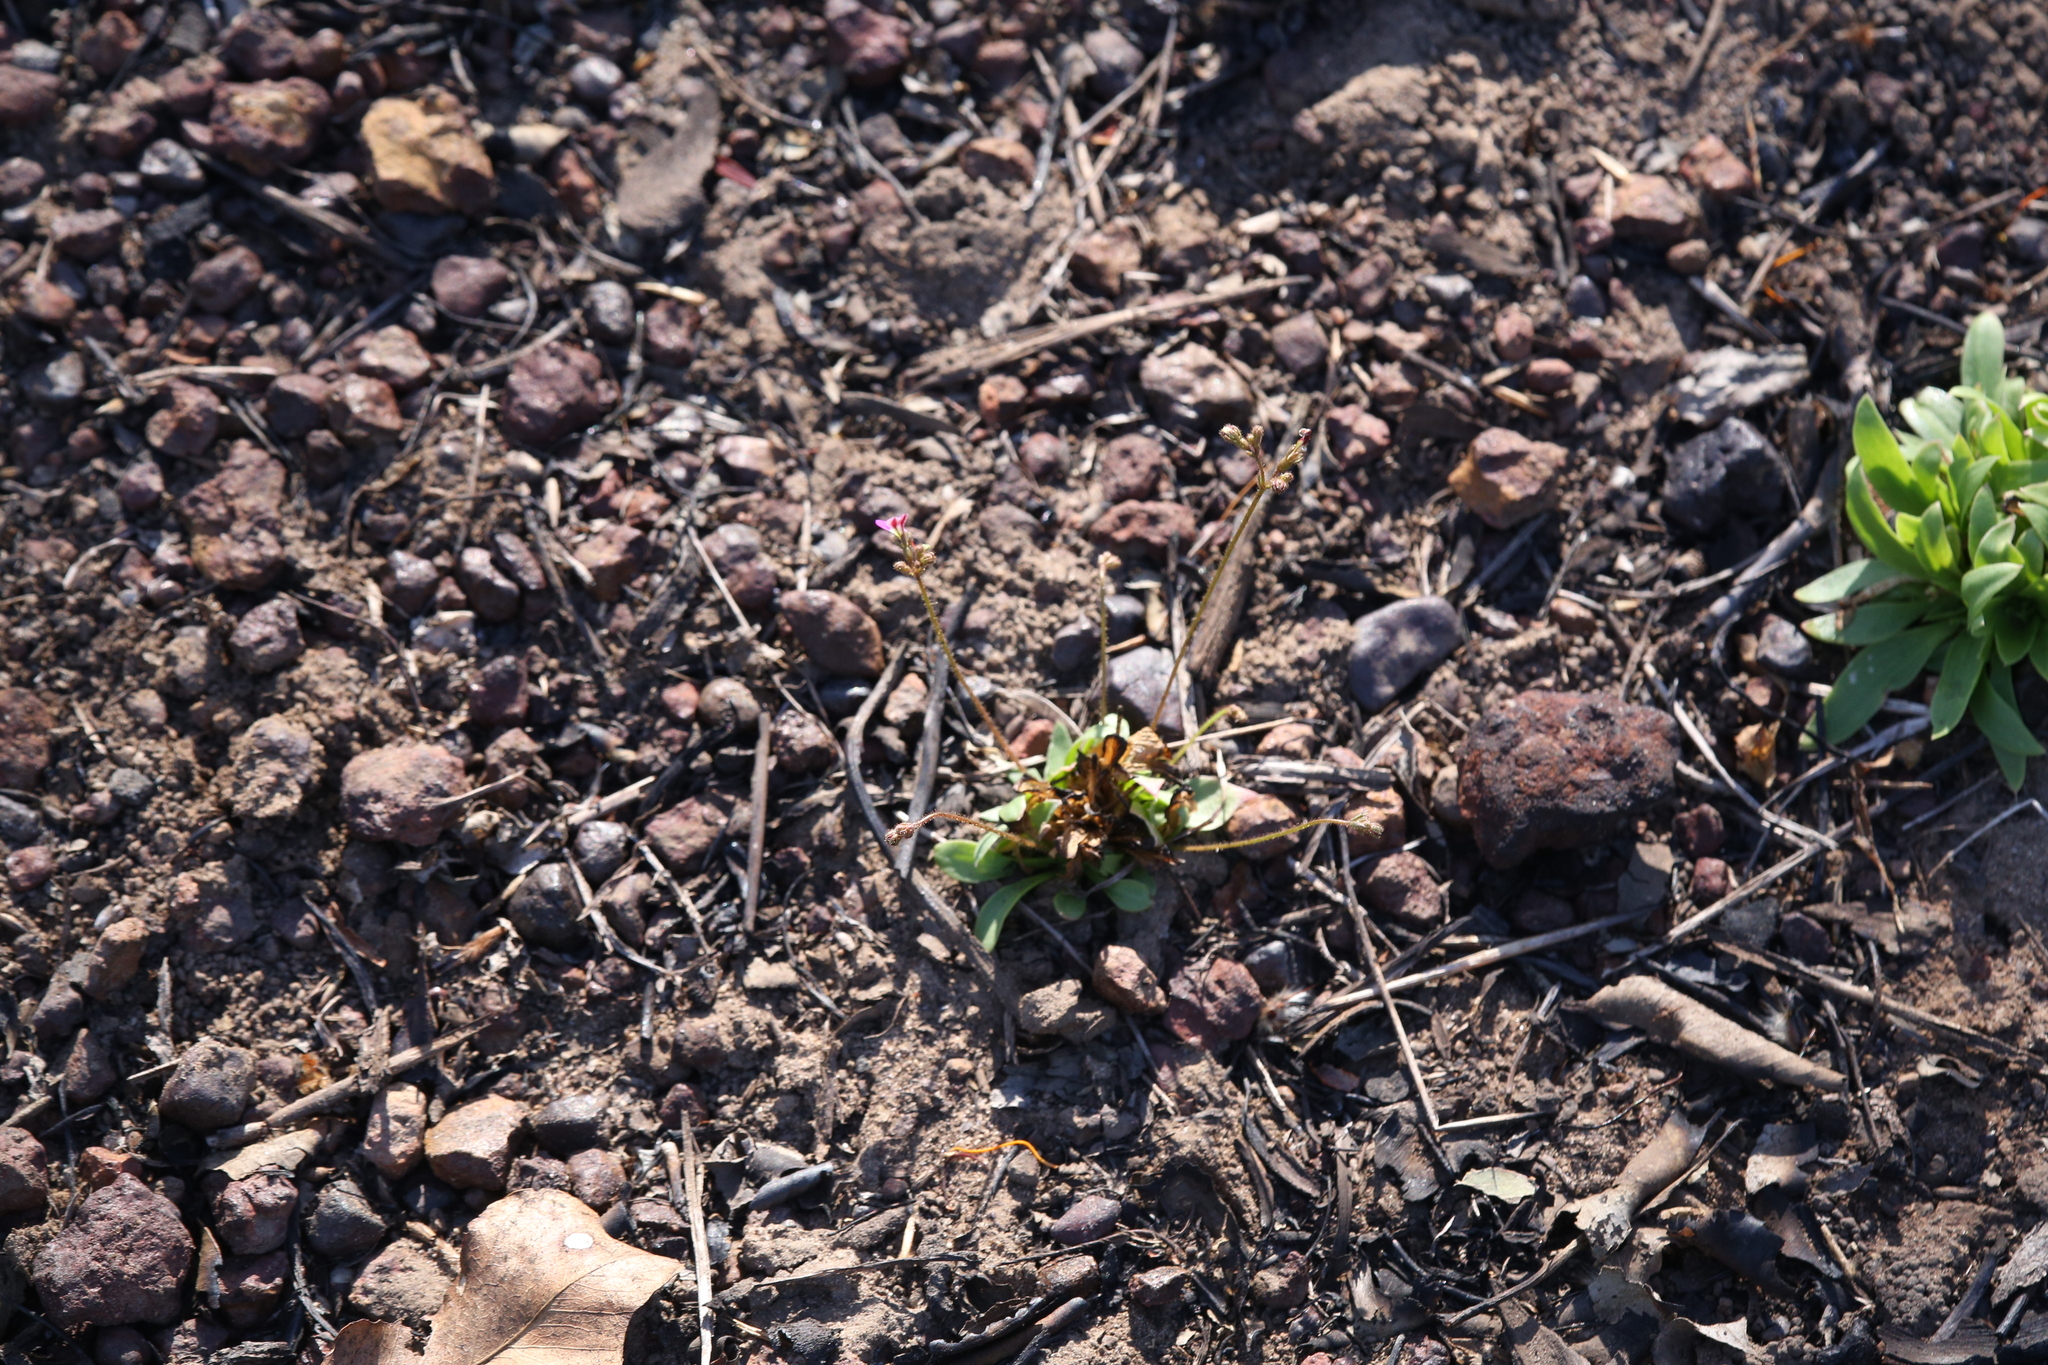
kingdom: Plantae
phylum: Tracheophyta
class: Magnoliopsida
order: Asterales
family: Stylidiaceae
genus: Stylidium
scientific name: Stylidium multiscapum
